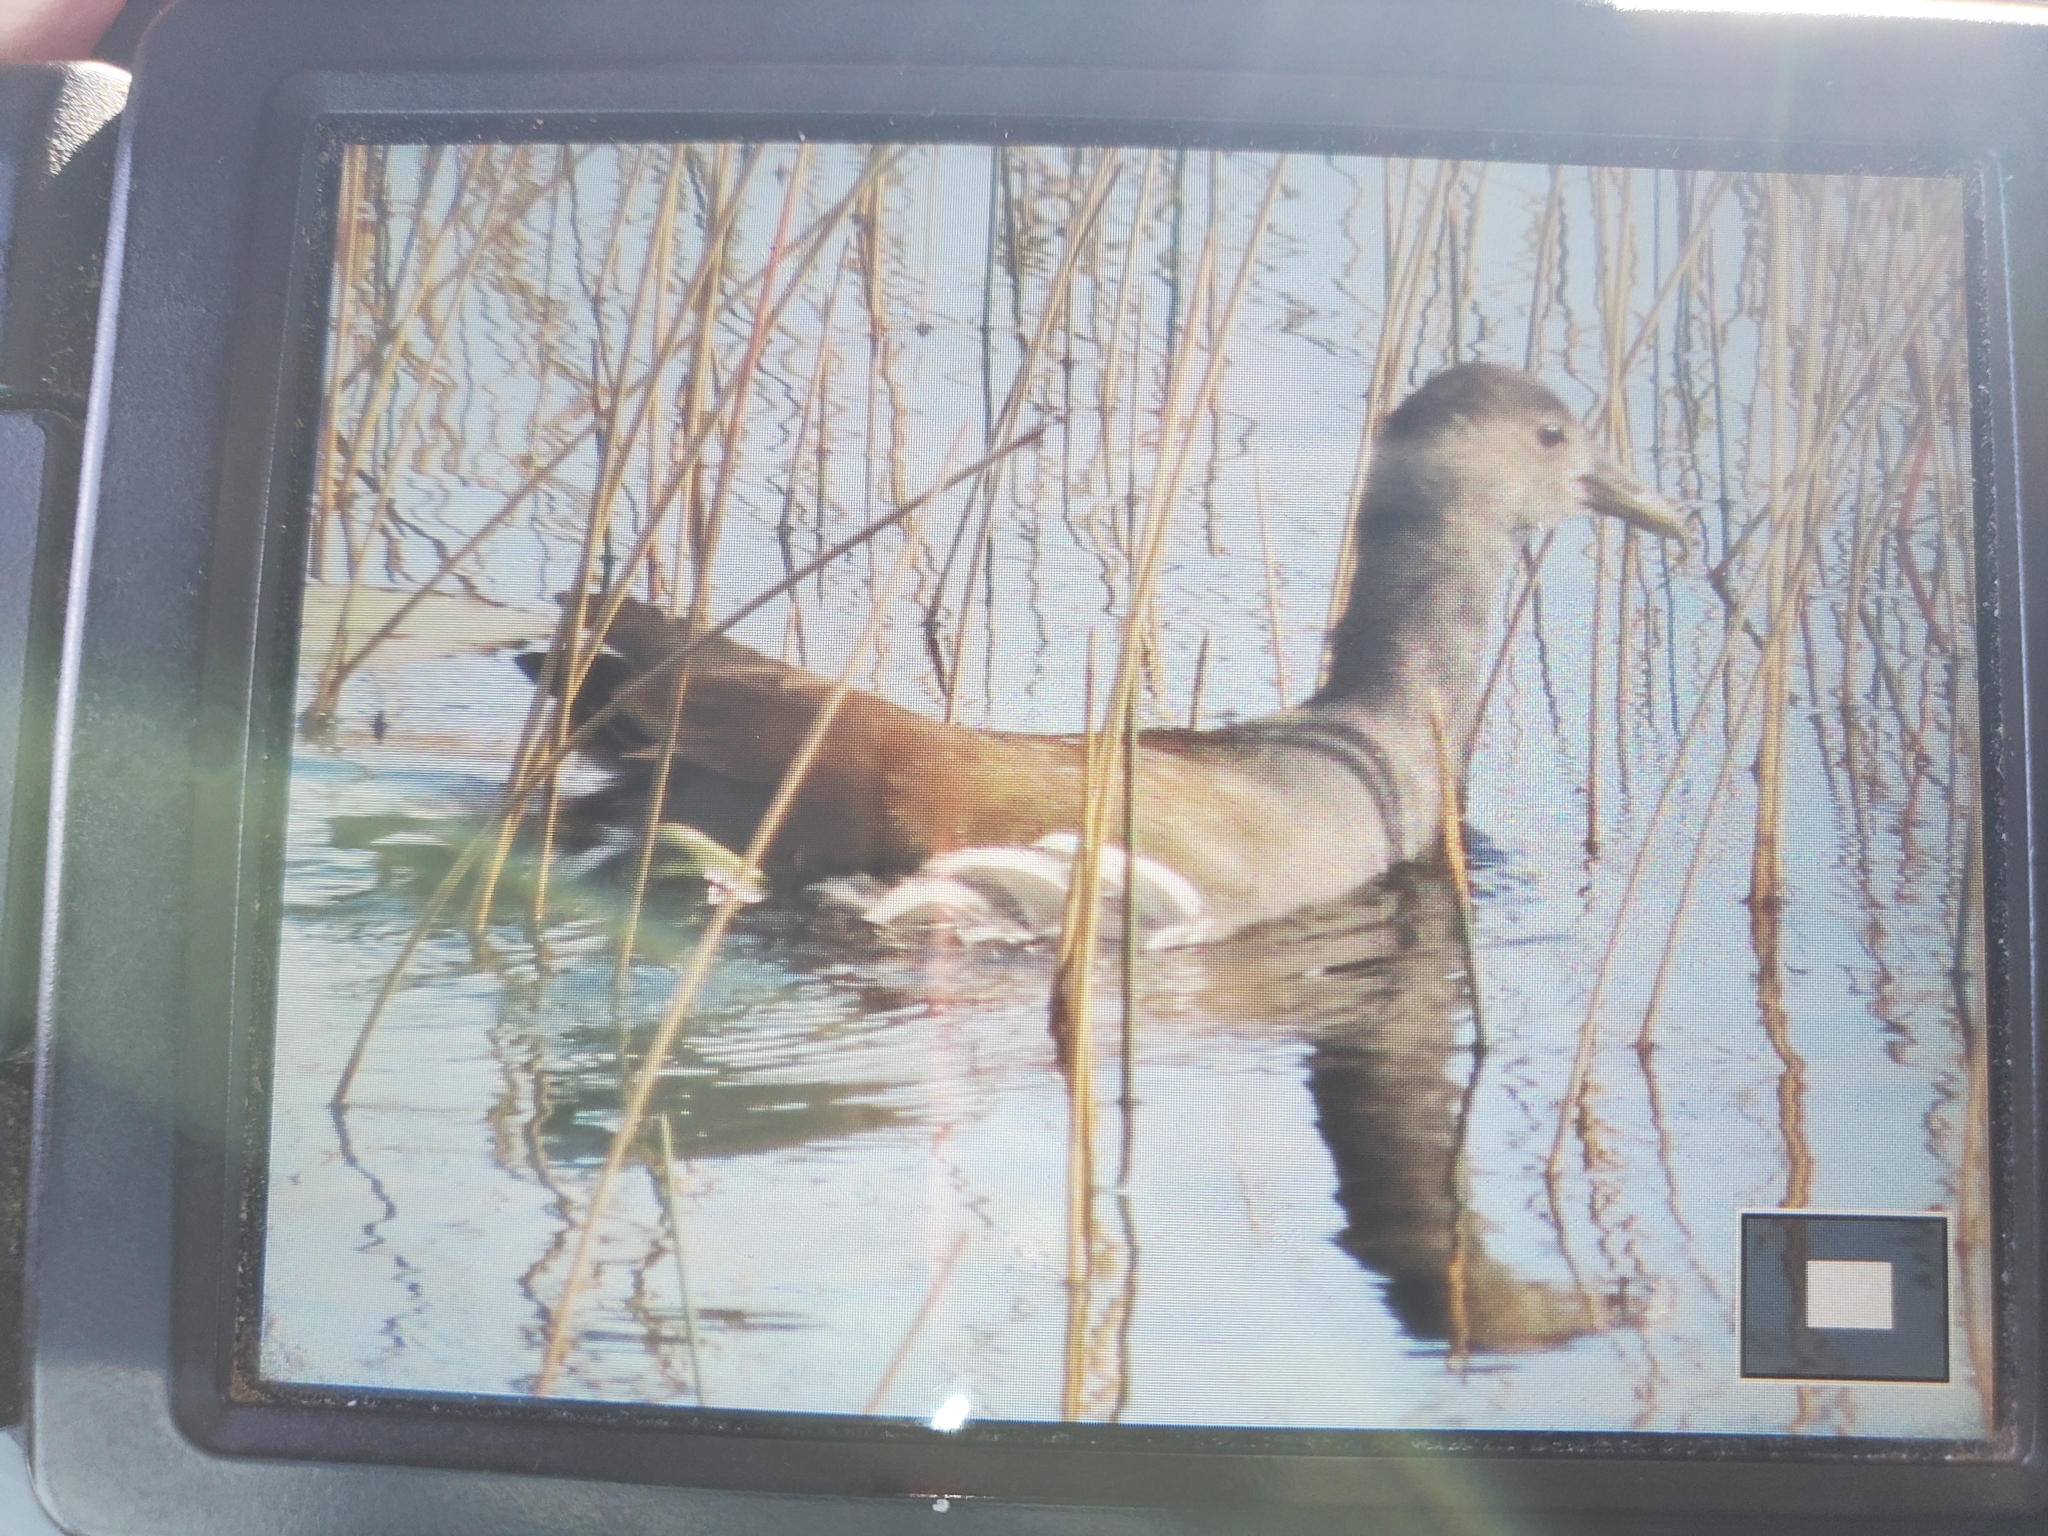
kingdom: Animalia
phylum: Chordata
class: Aves
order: Gruiformes
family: Rallidae
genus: Gallinula
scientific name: Gallinula chloropus
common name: Common moorhen
